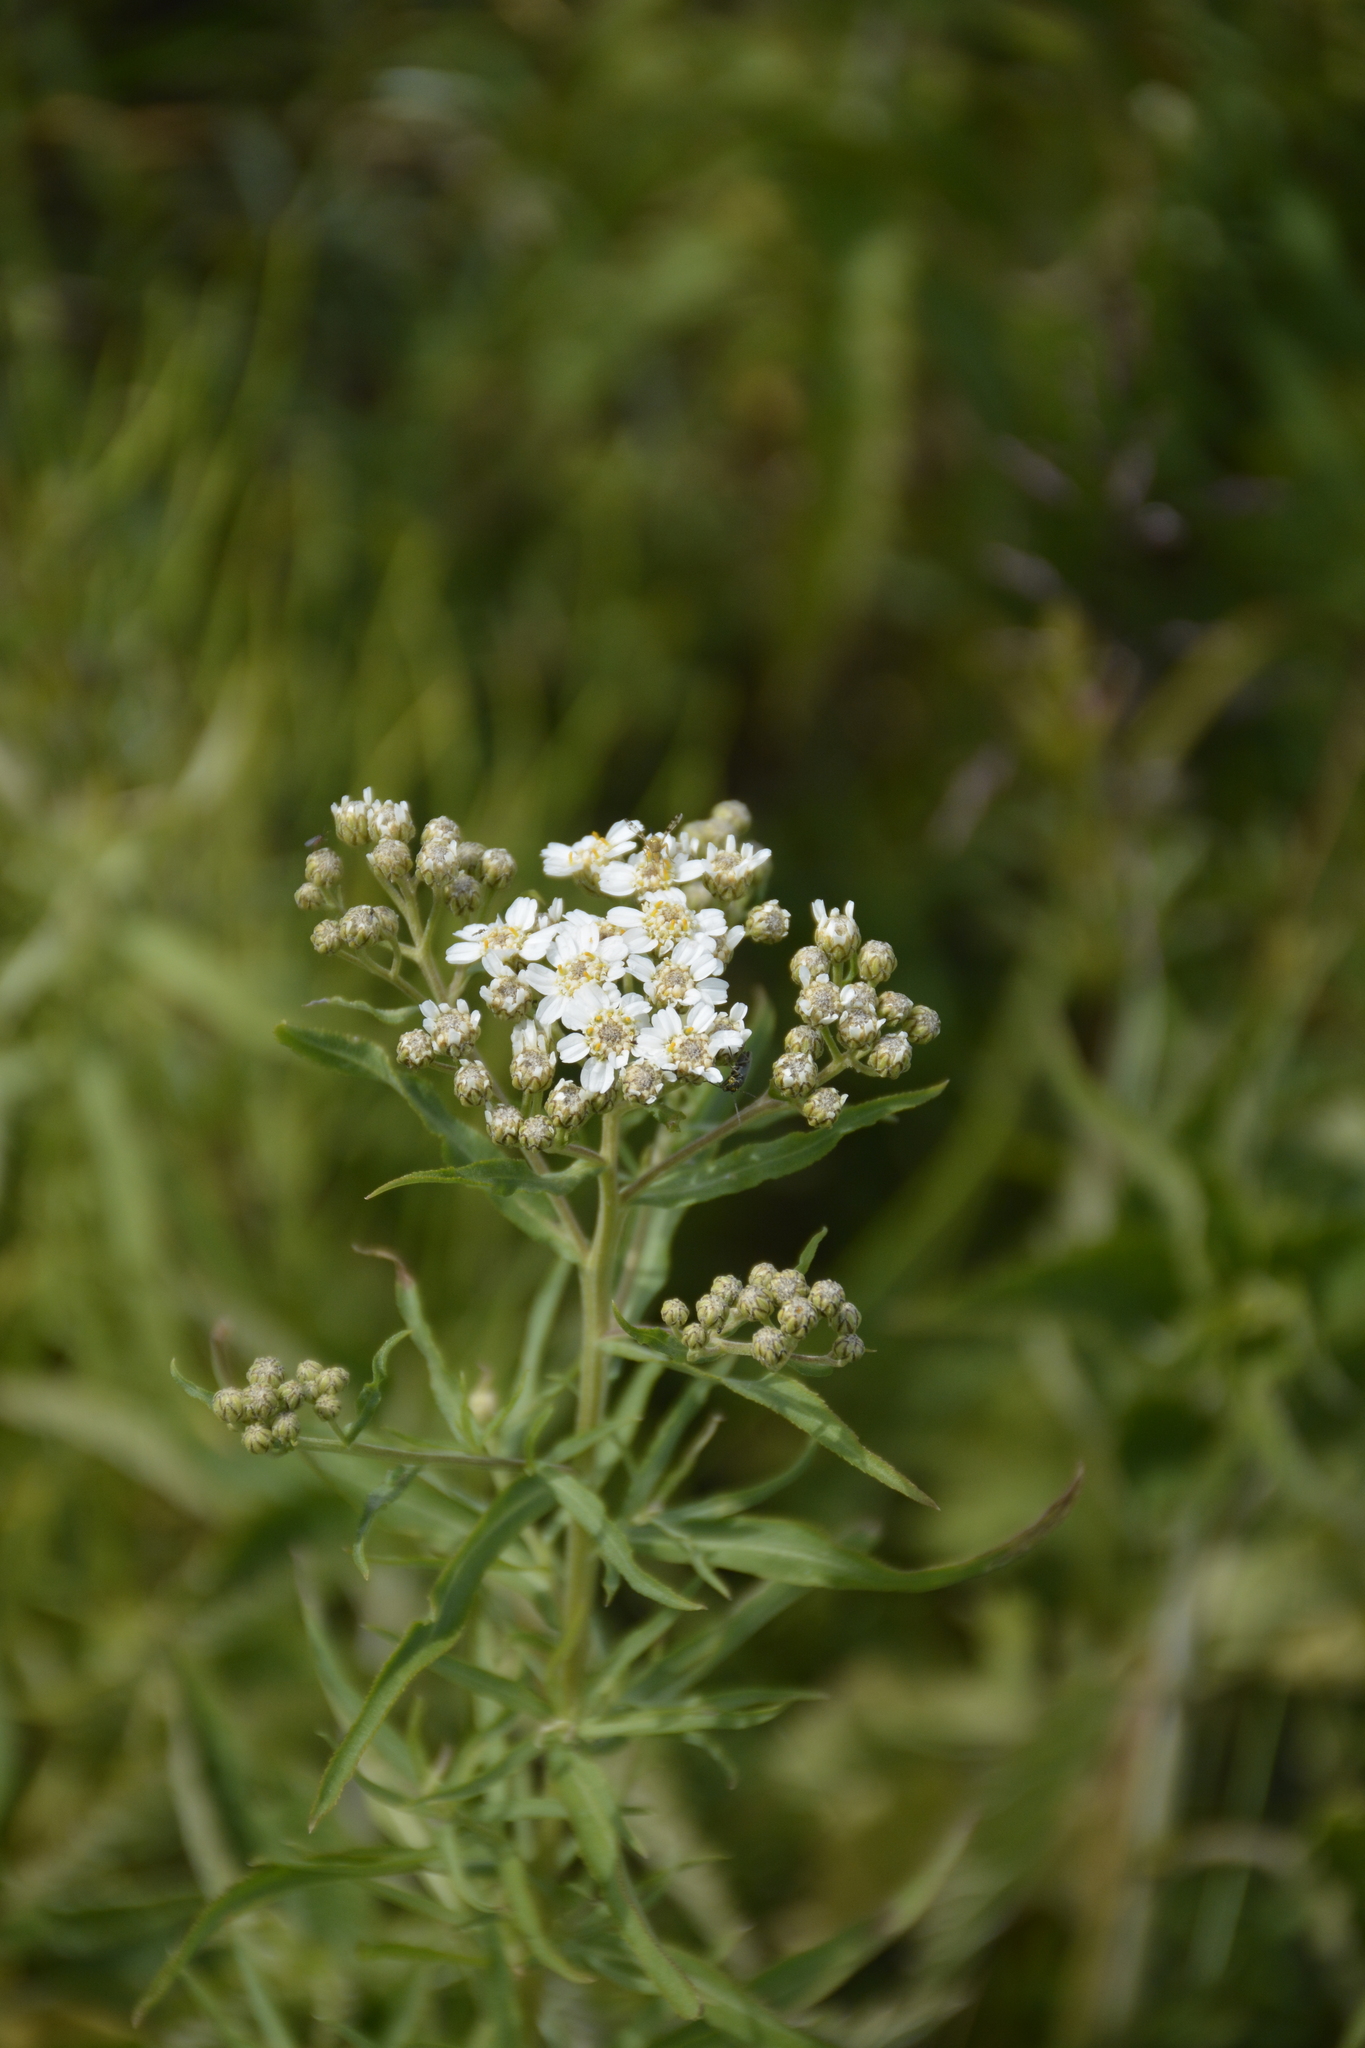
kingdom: Plantae
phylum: Tracheophyta
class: Magnoliopsida
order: Asterales
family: Asteraceae
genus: Achillea
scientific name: Achillea salicifolia
